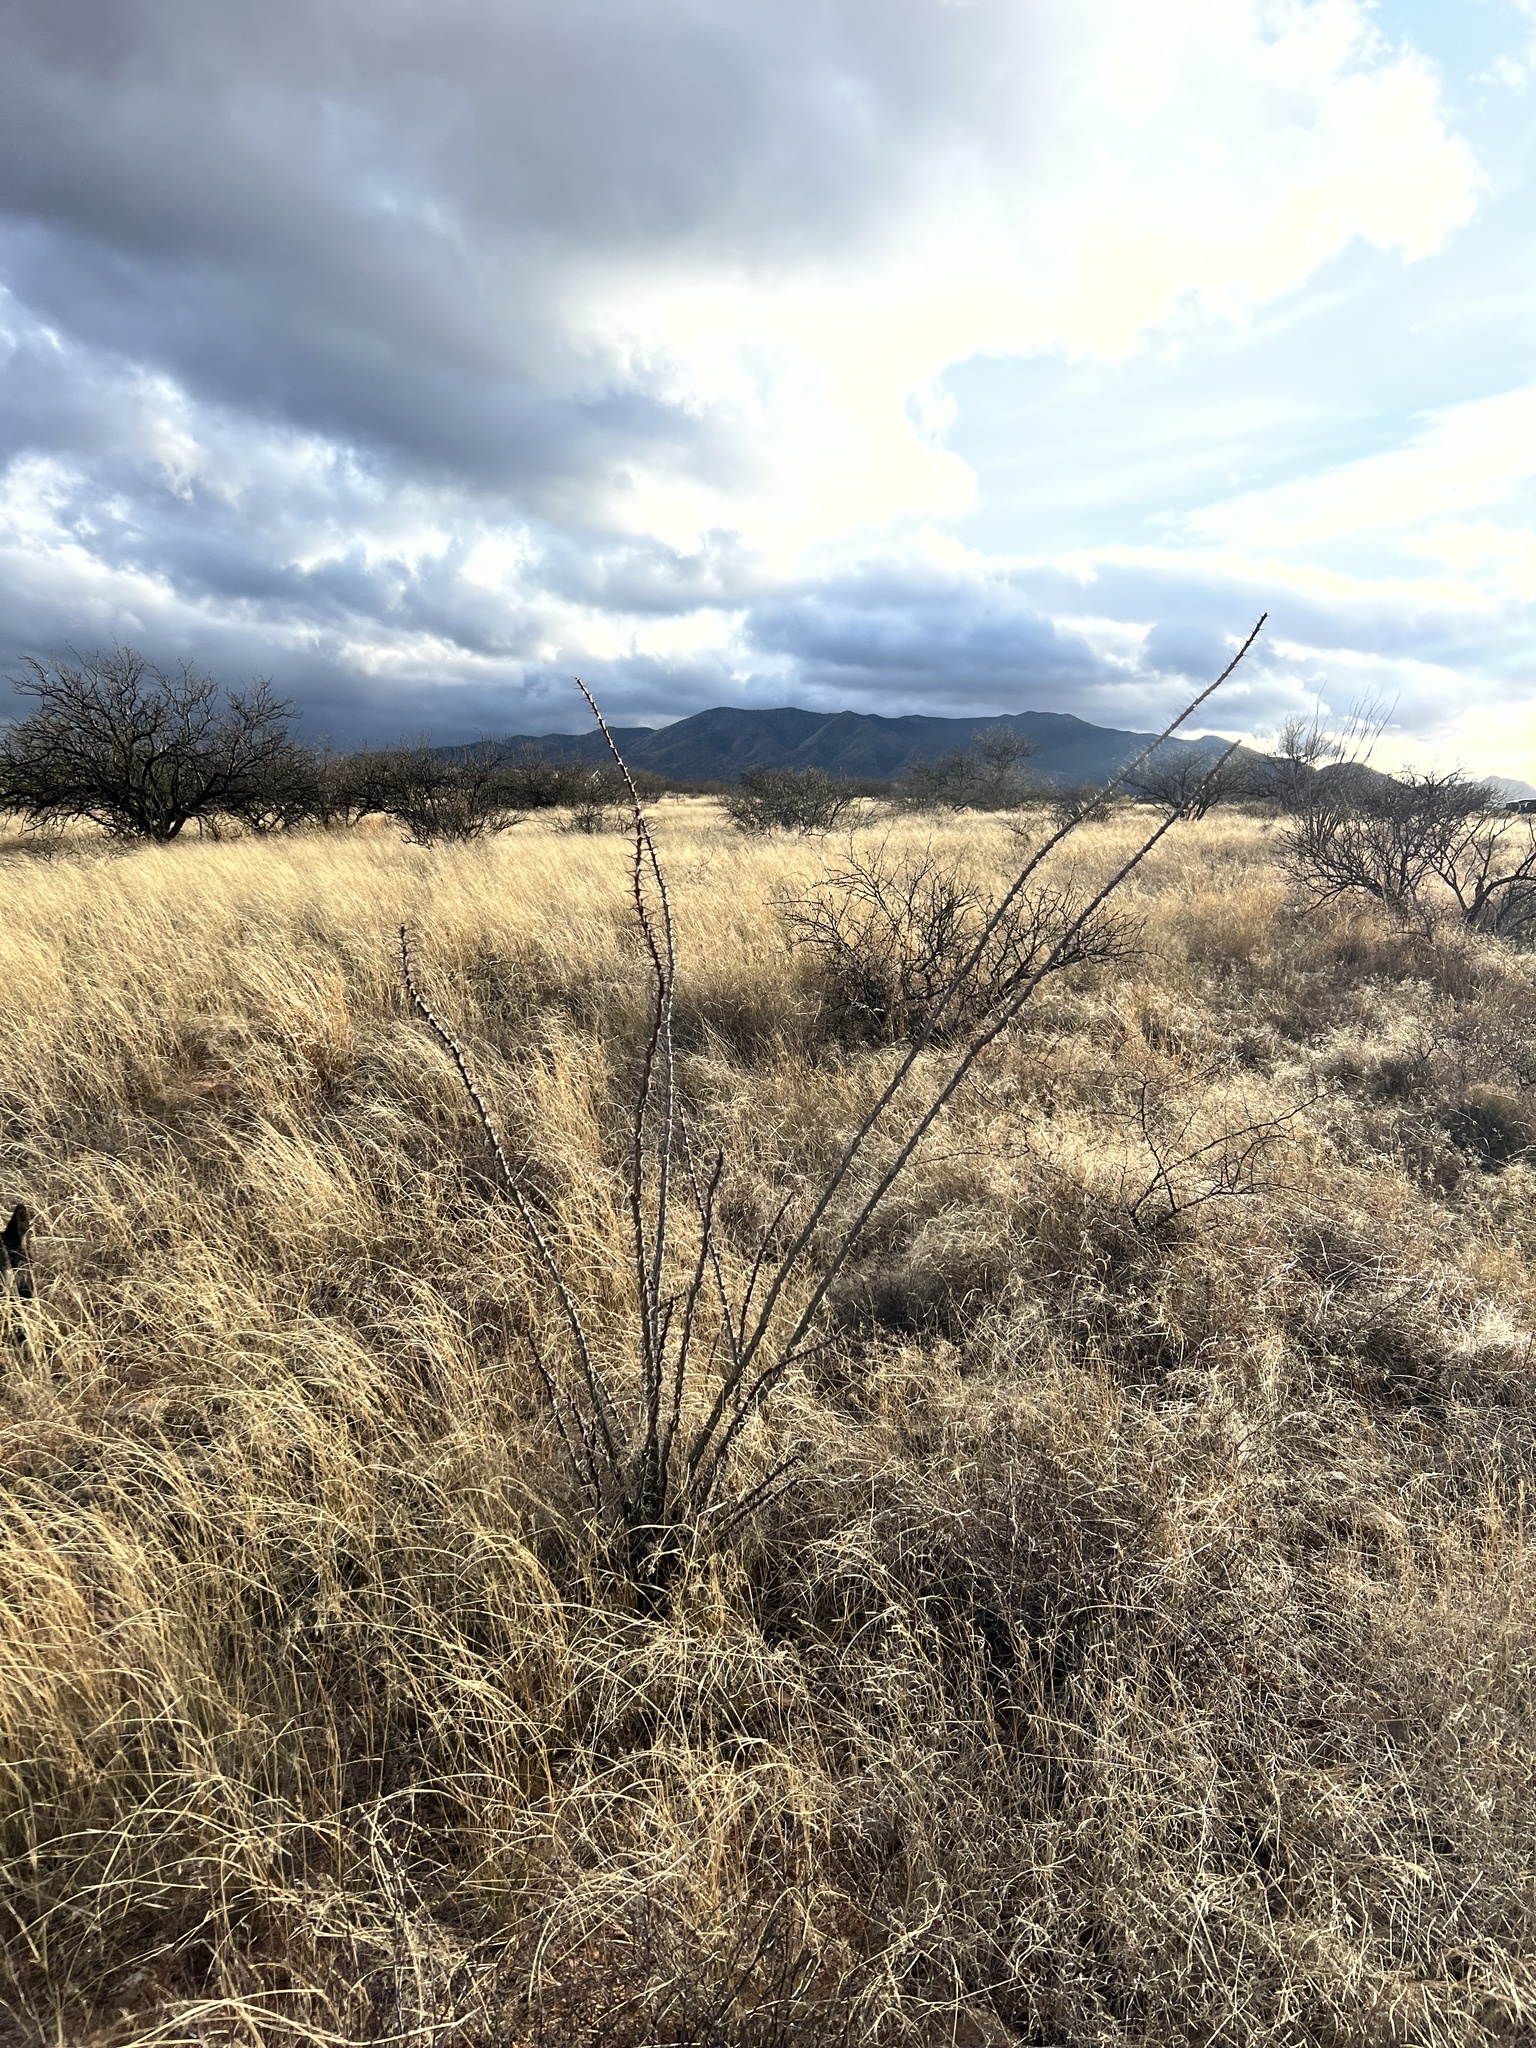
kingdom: Plantae
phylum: Tracheophyta
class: Magnoliopsida
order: Ericales
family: Fouquieriaceae
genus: Fouquieria
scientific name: Fouquieria splendens
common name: Vine-cactus
